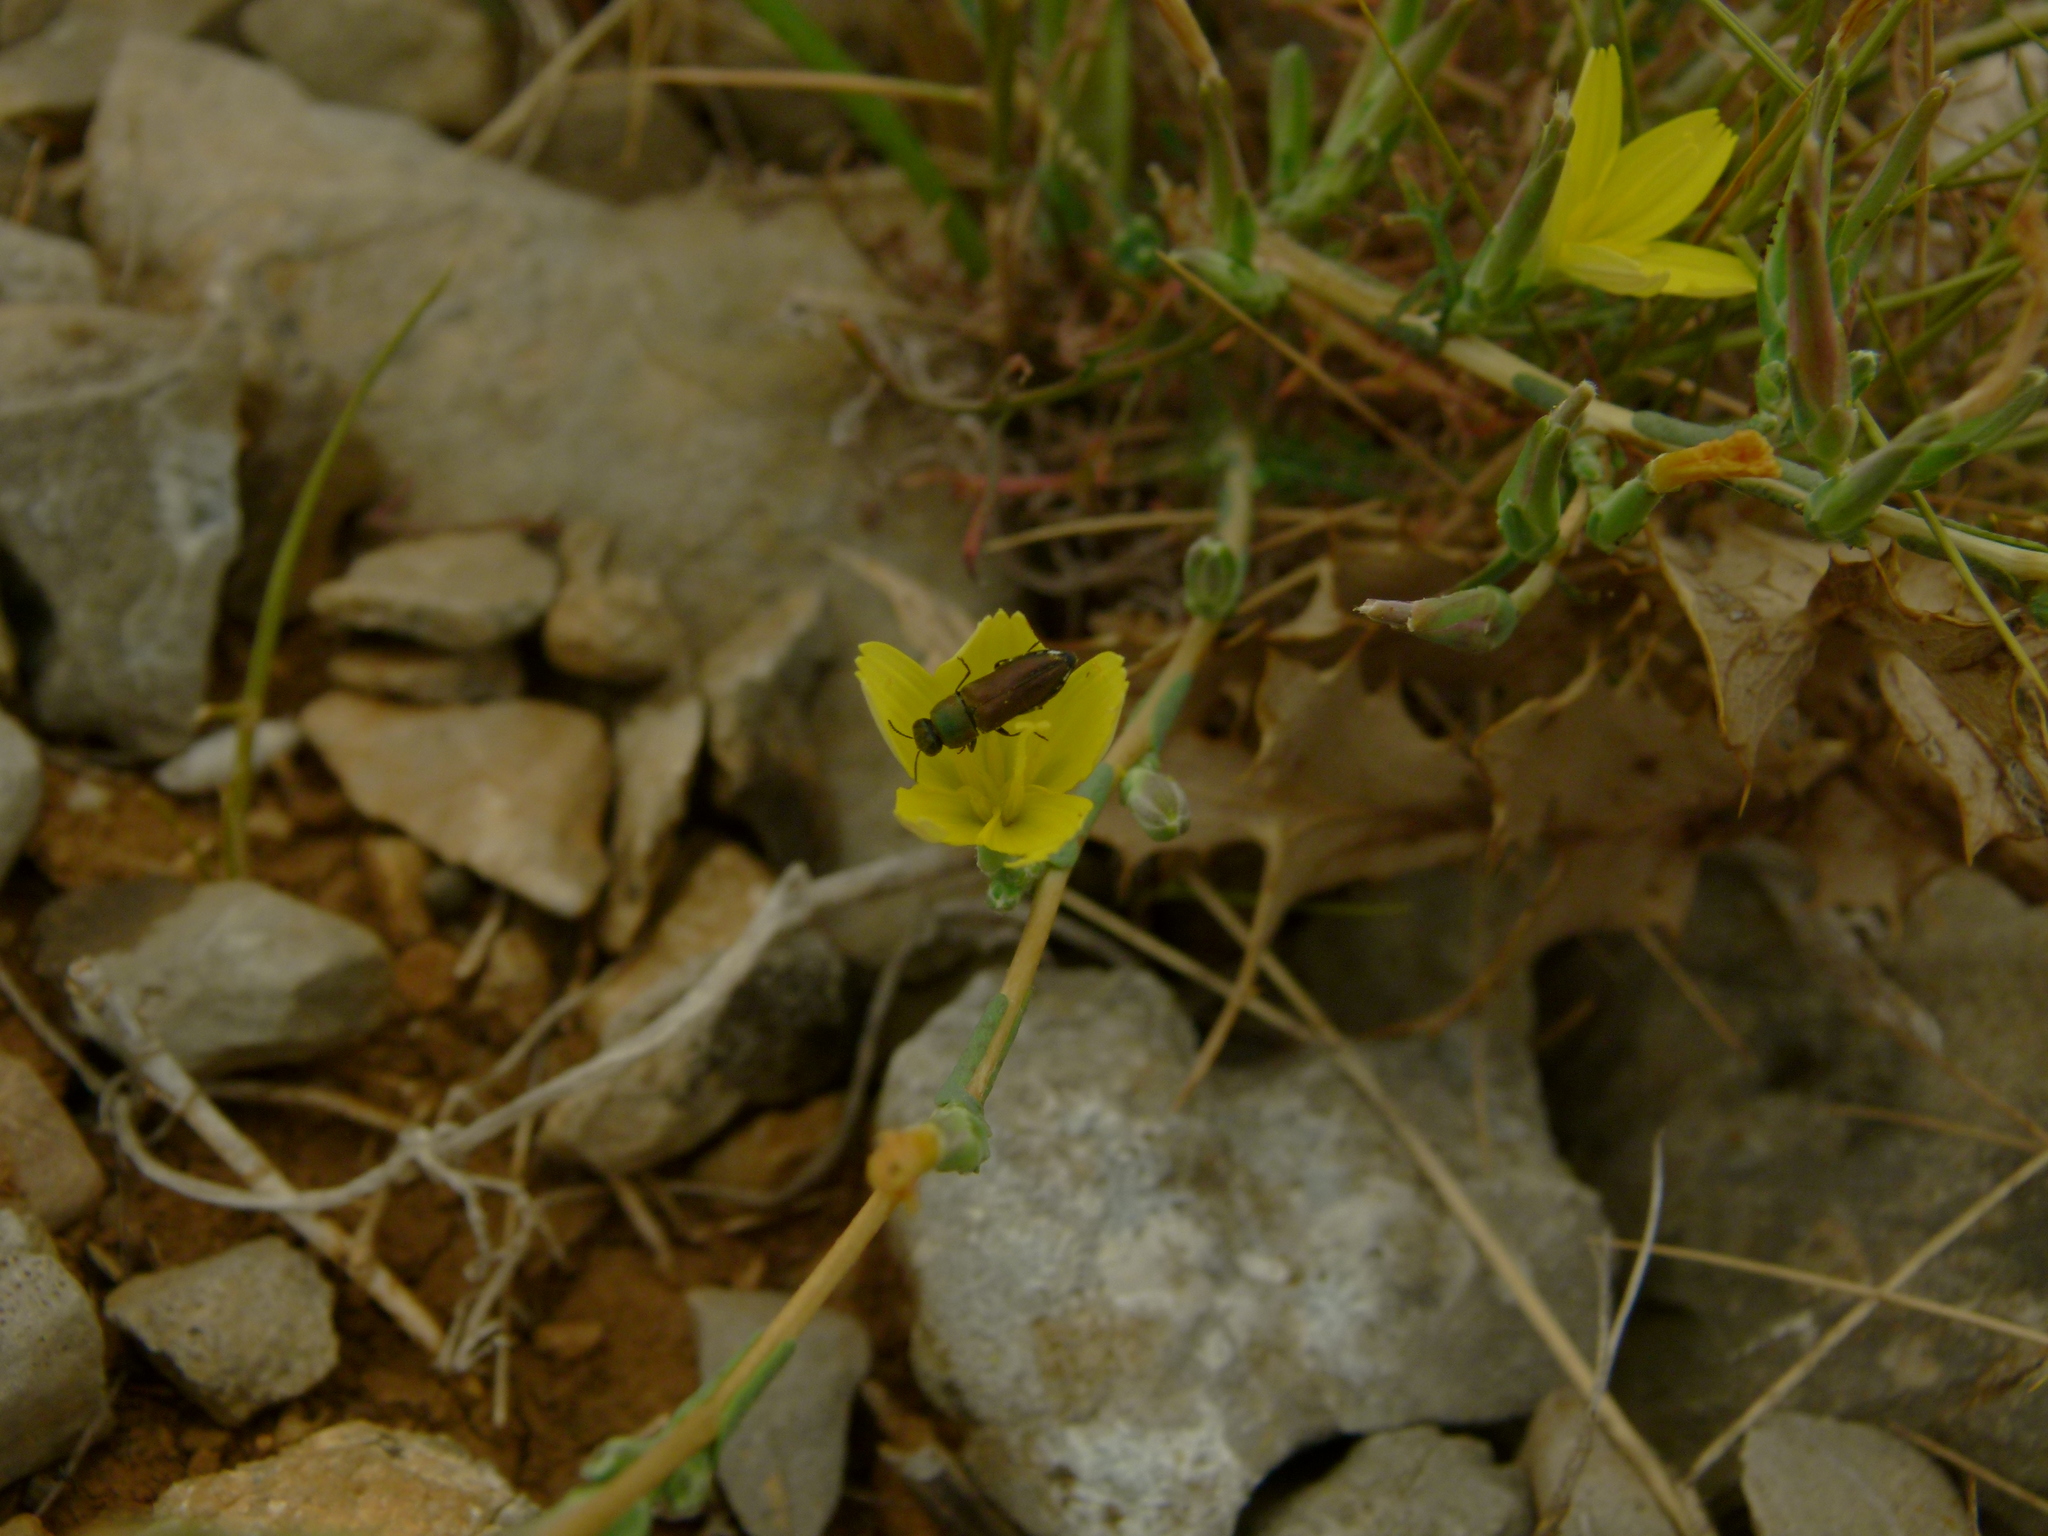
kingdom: Animalia
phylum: Arthropoda
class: Insecta
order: Coleoptera
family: Buprestidae
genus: Anthaxia
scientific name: Anthaxia millefolii
